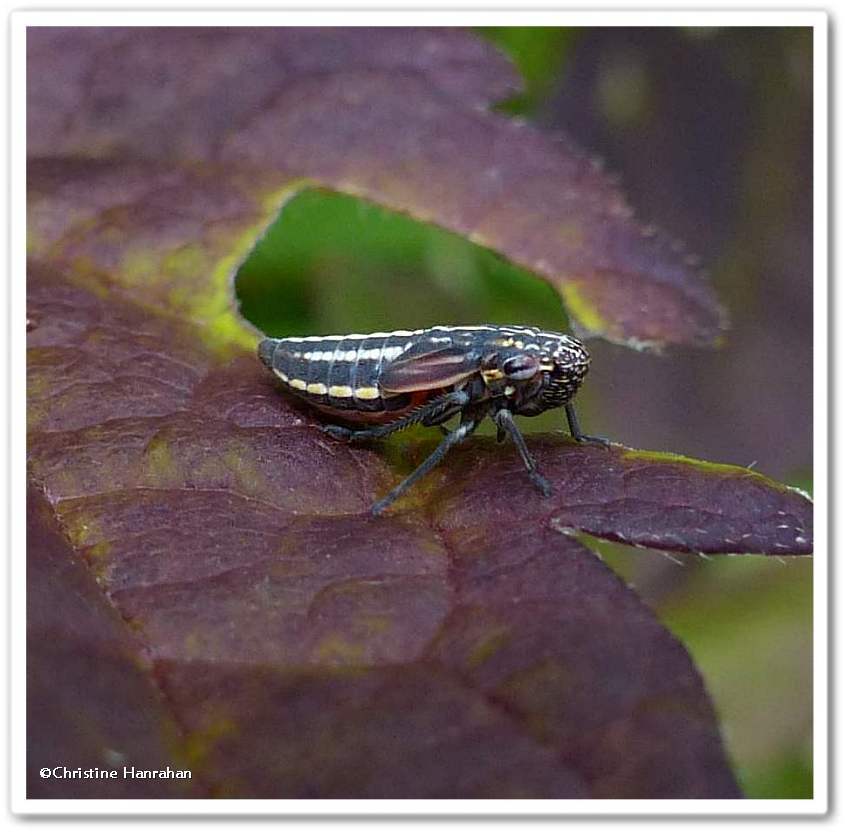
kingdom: Animalia
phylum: Arthropoda
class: Insecta
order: Hemiptera
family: Cicadellidae
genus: Cuerna
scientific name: Cuerna striata
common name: Striped leafhopper
